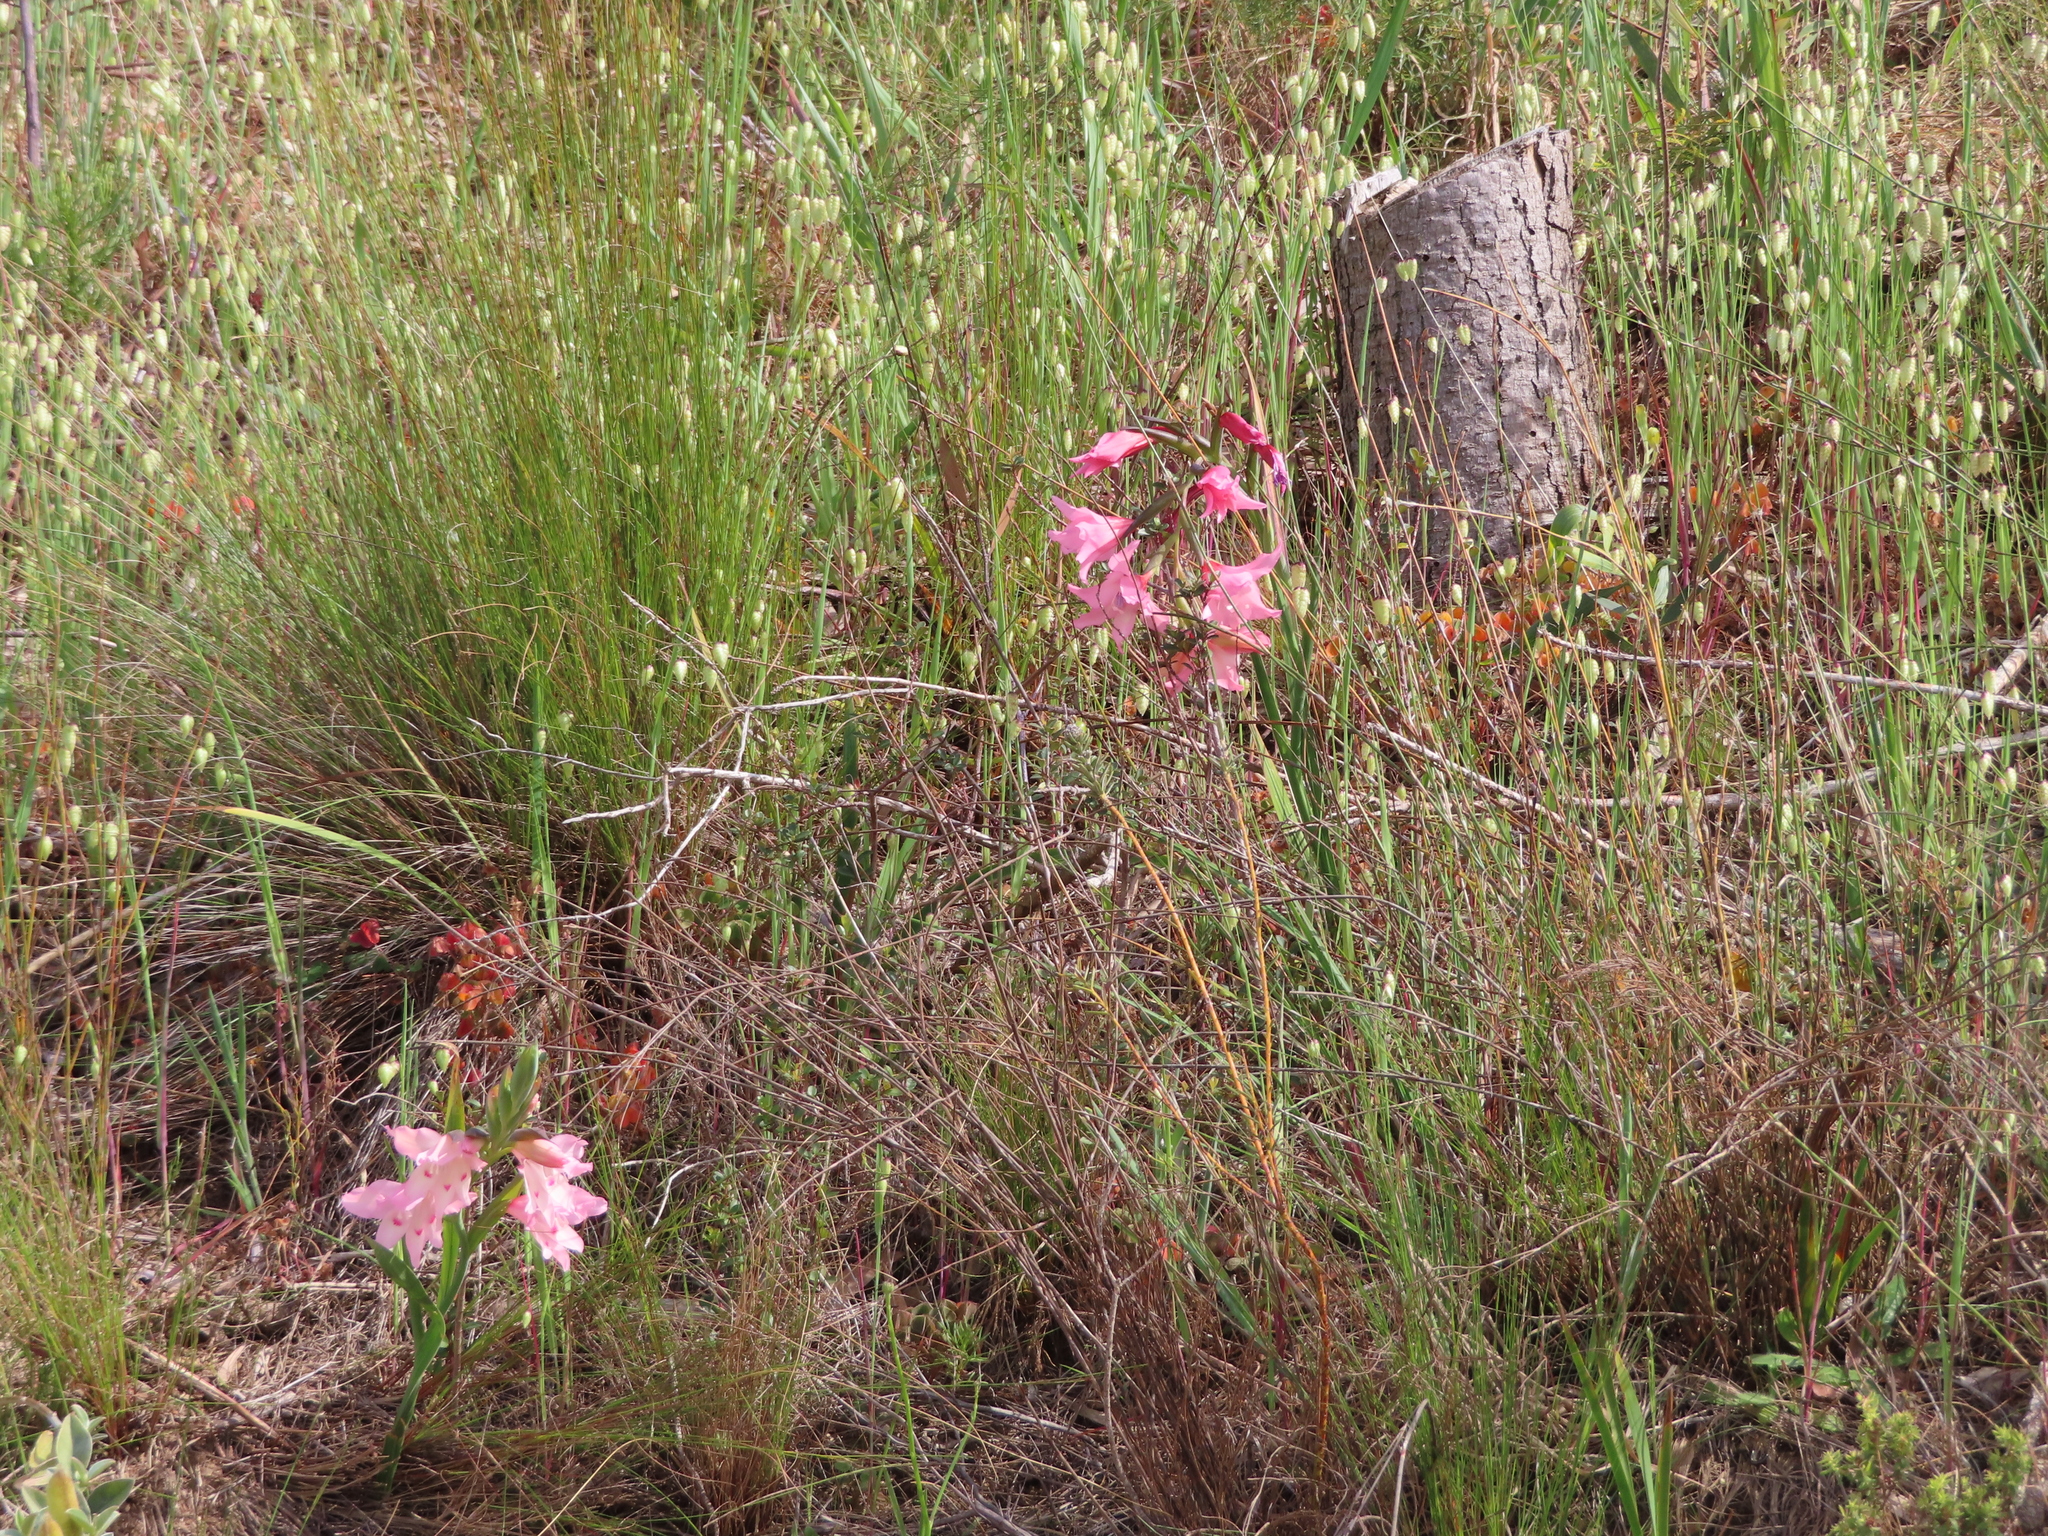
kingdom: Plantae
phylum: Tracheophyta
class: Liliopsida
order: Asparagales
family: Iridaceae
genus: Gladiolus
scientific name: Gladiolus carneus
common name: Painted-lady
